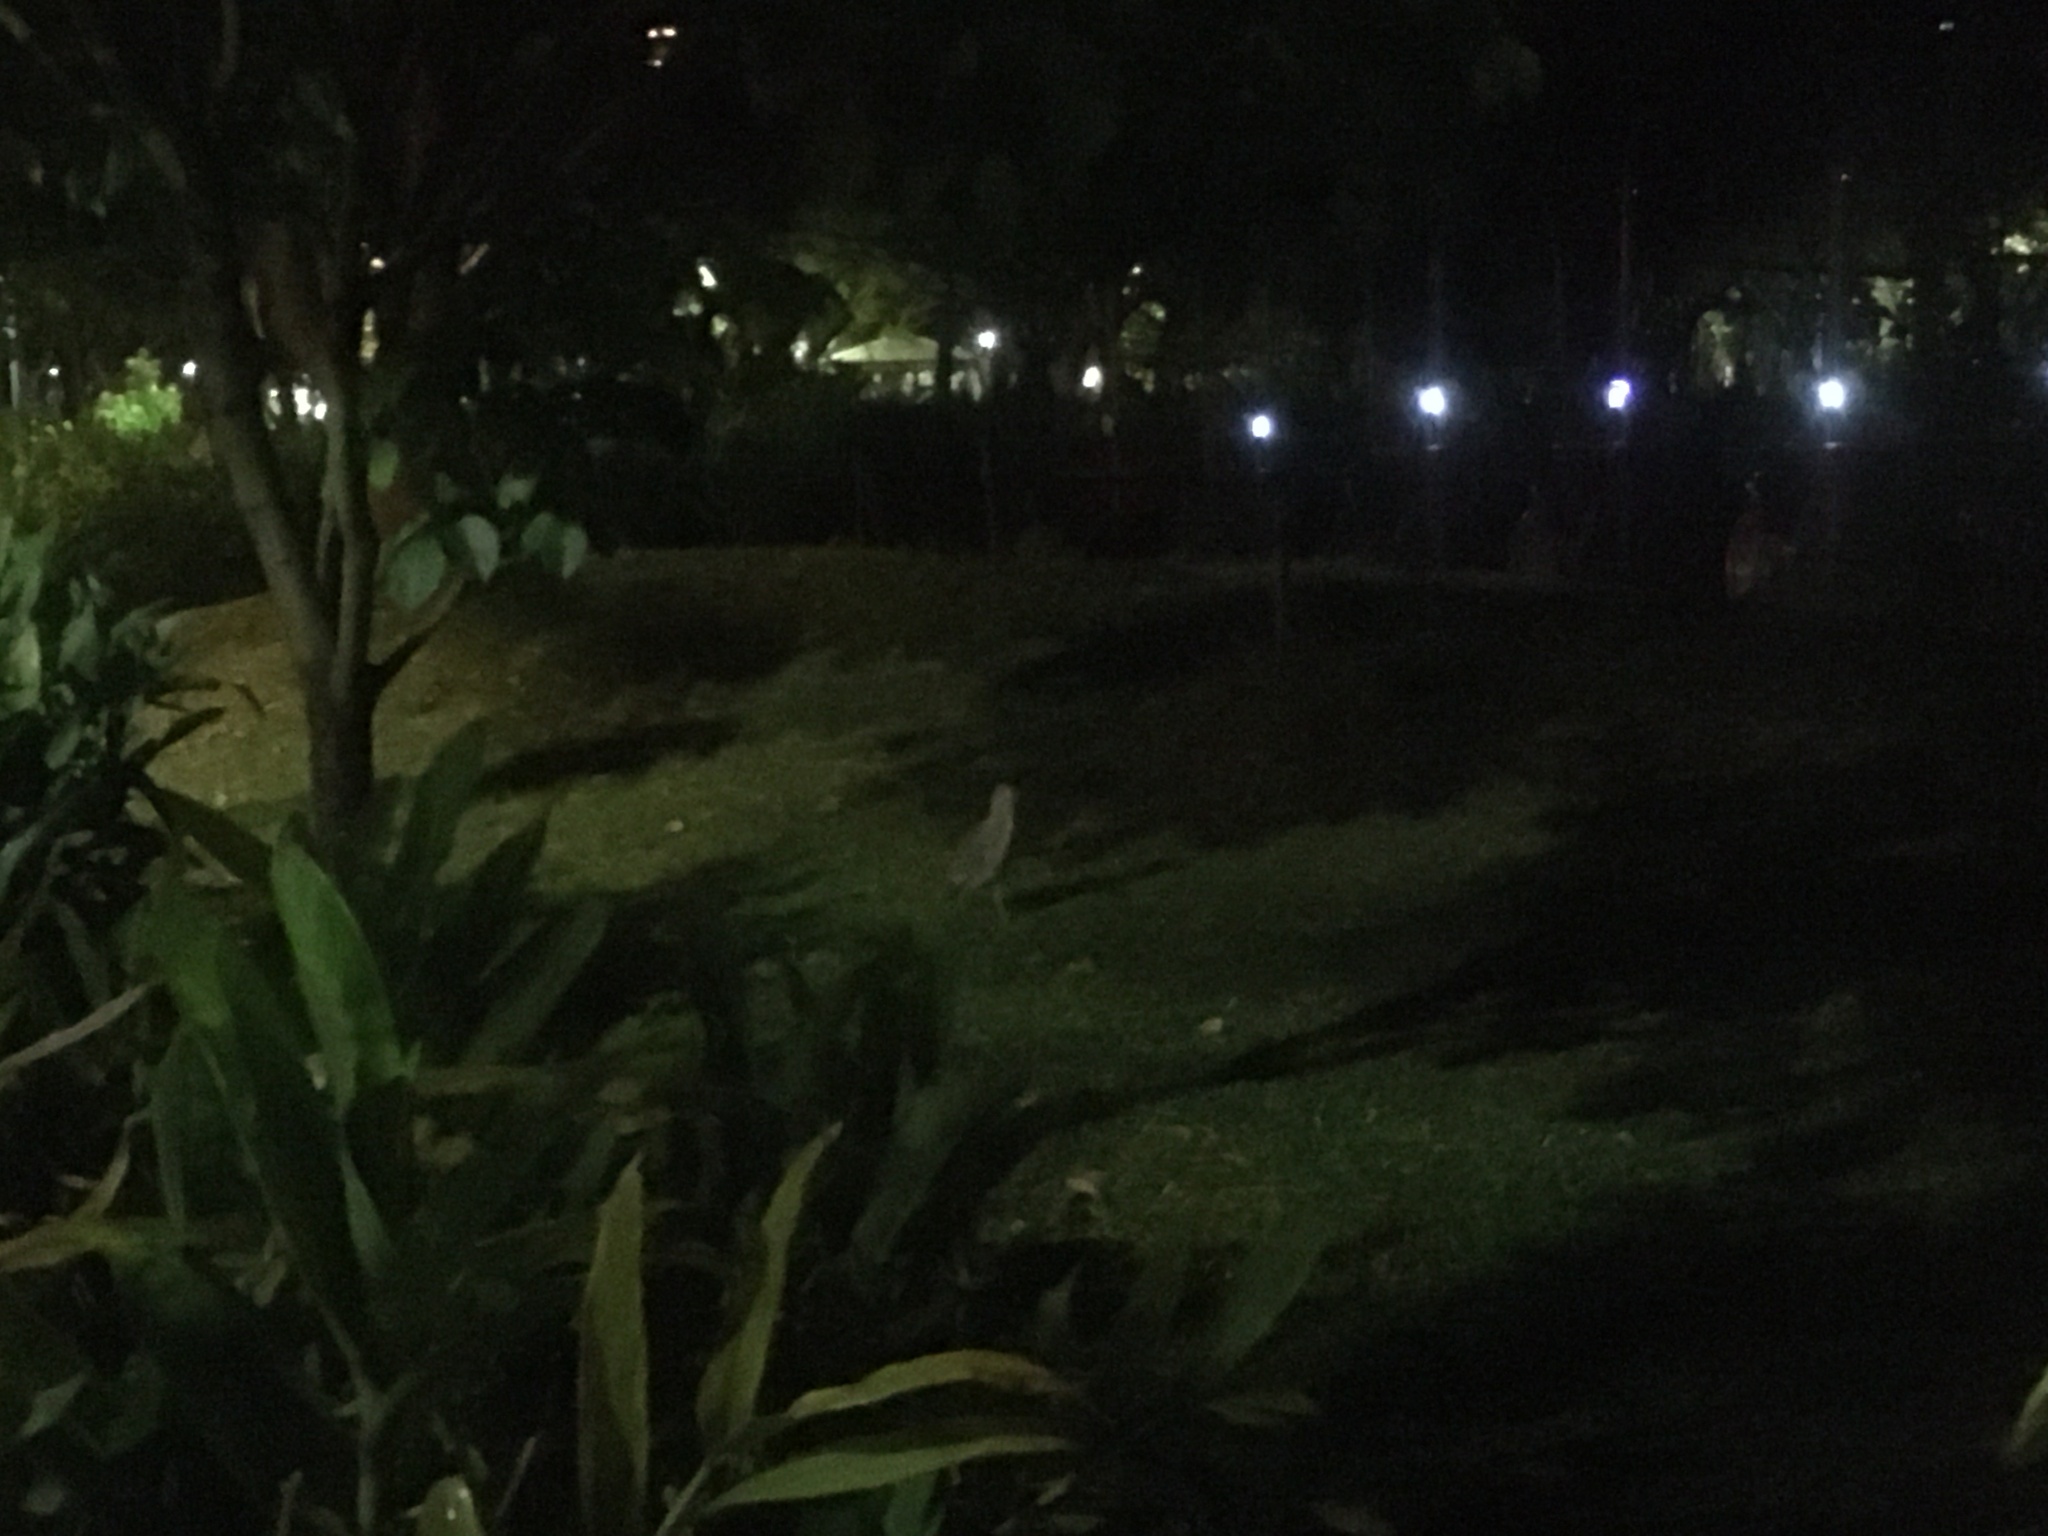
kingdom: Animalia
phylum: Chordata
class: Aves
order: Pelecaniformes
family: Ardeidae
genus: Gorsachius
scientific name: Gorsachius melanolophus
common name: Malayan night heron
